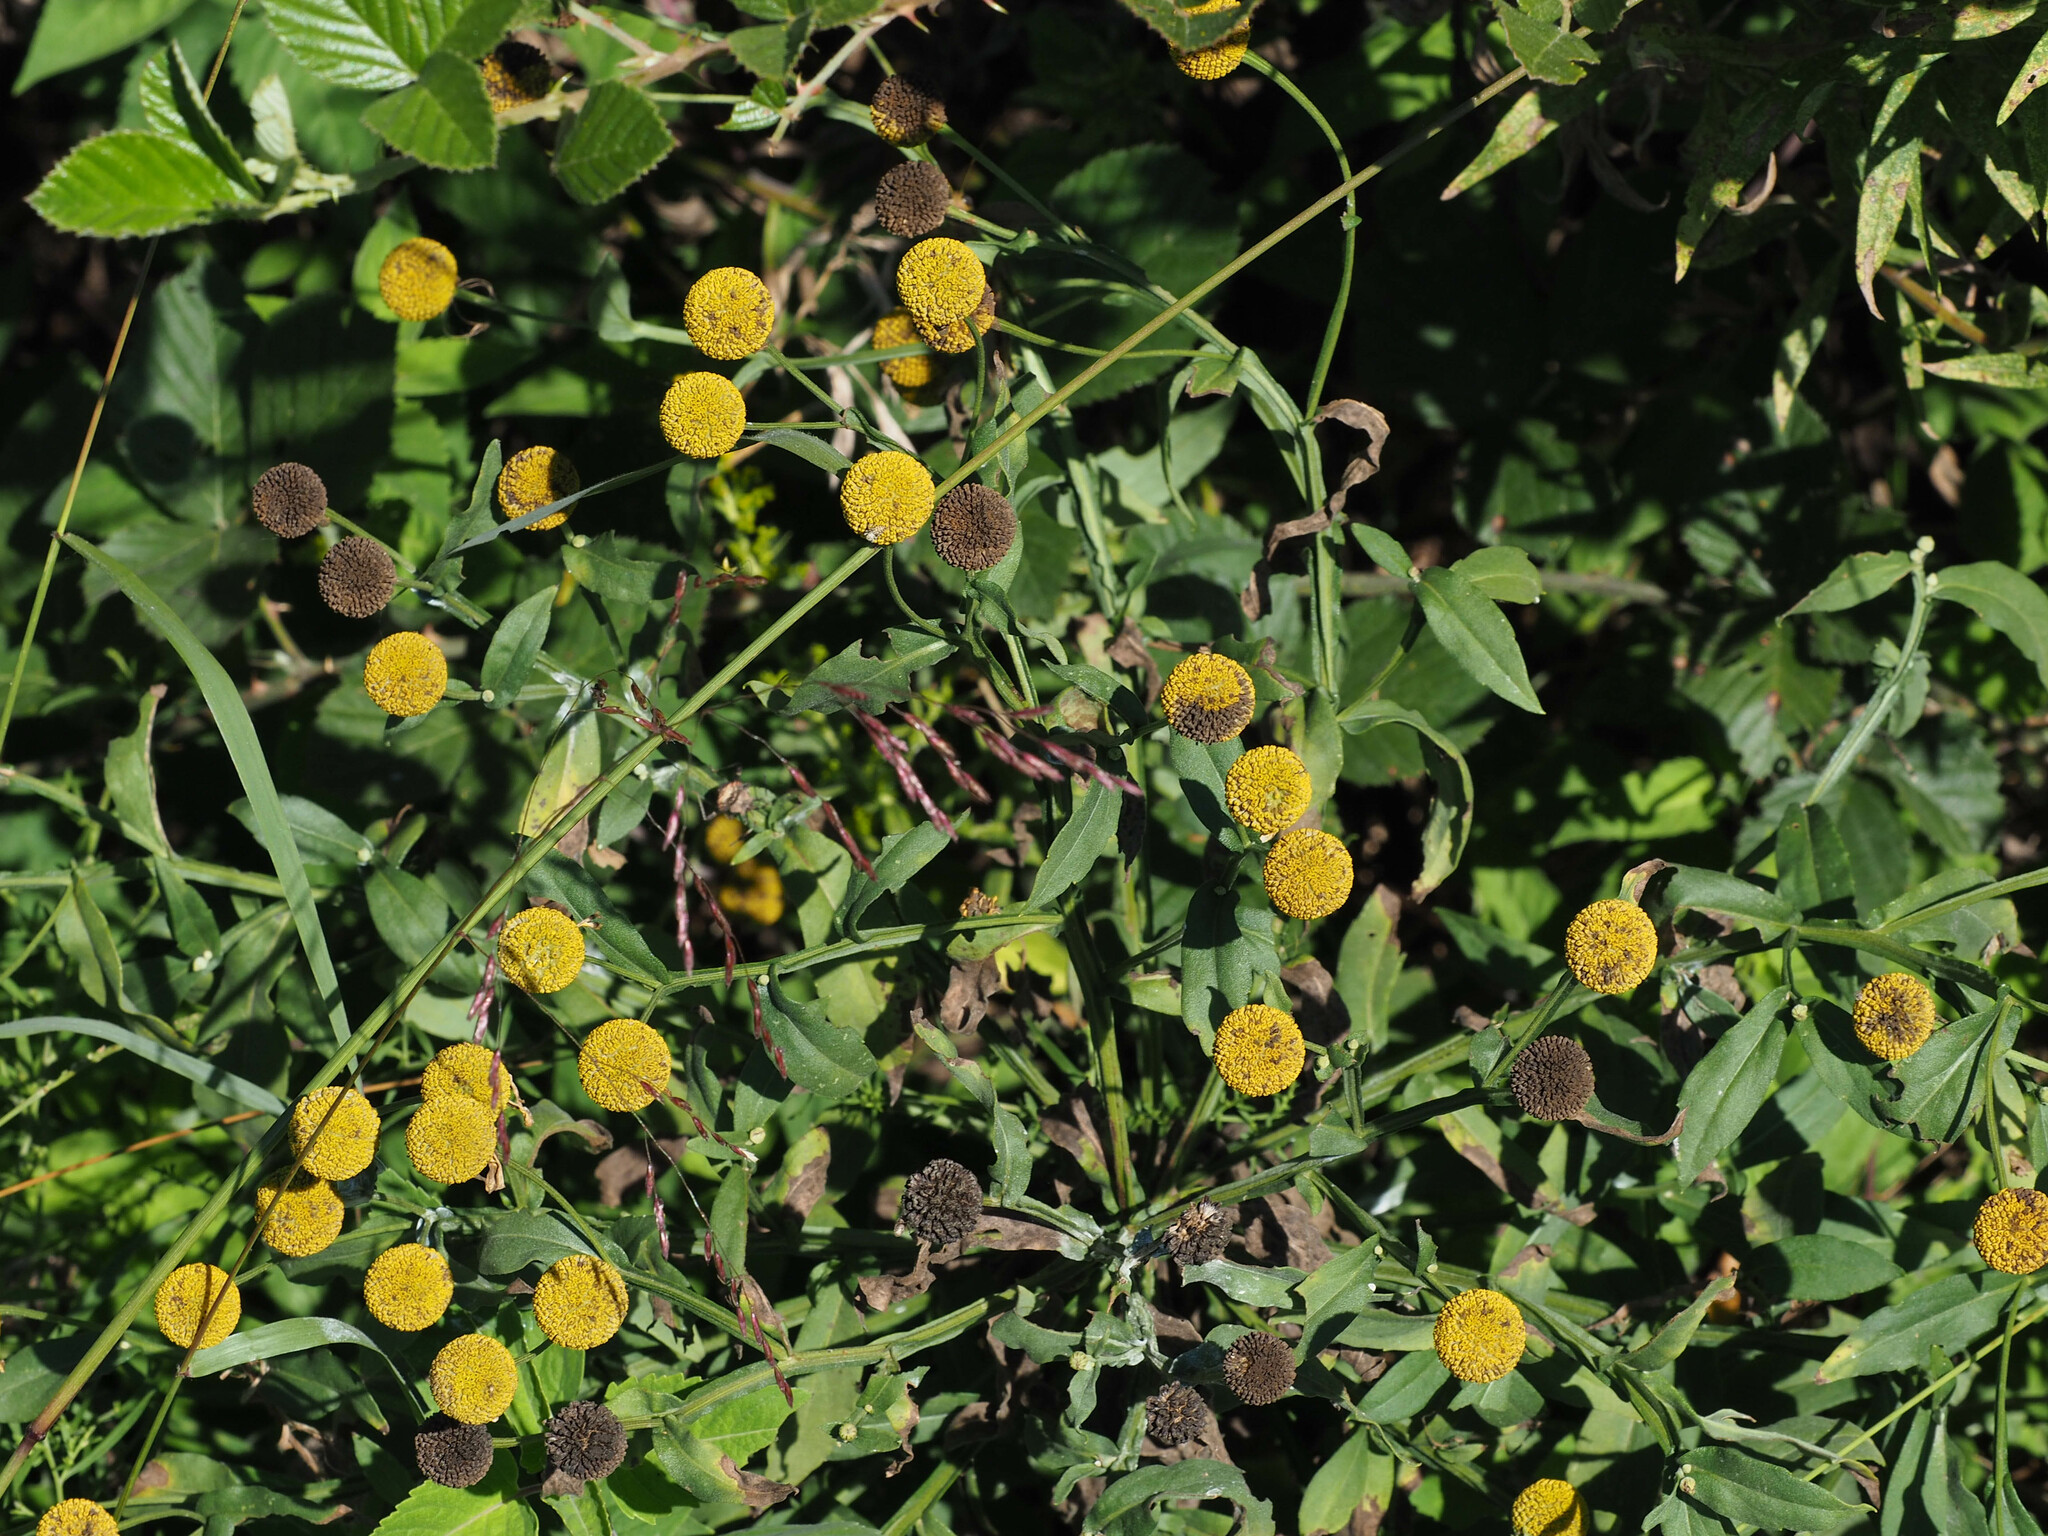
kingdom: Plantae
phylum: Tracheophyta
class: Magnoliopsida
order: Asterales
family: Asteraceae
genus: Helenium
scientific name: Helenium autumnale
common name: Sneezeweed
